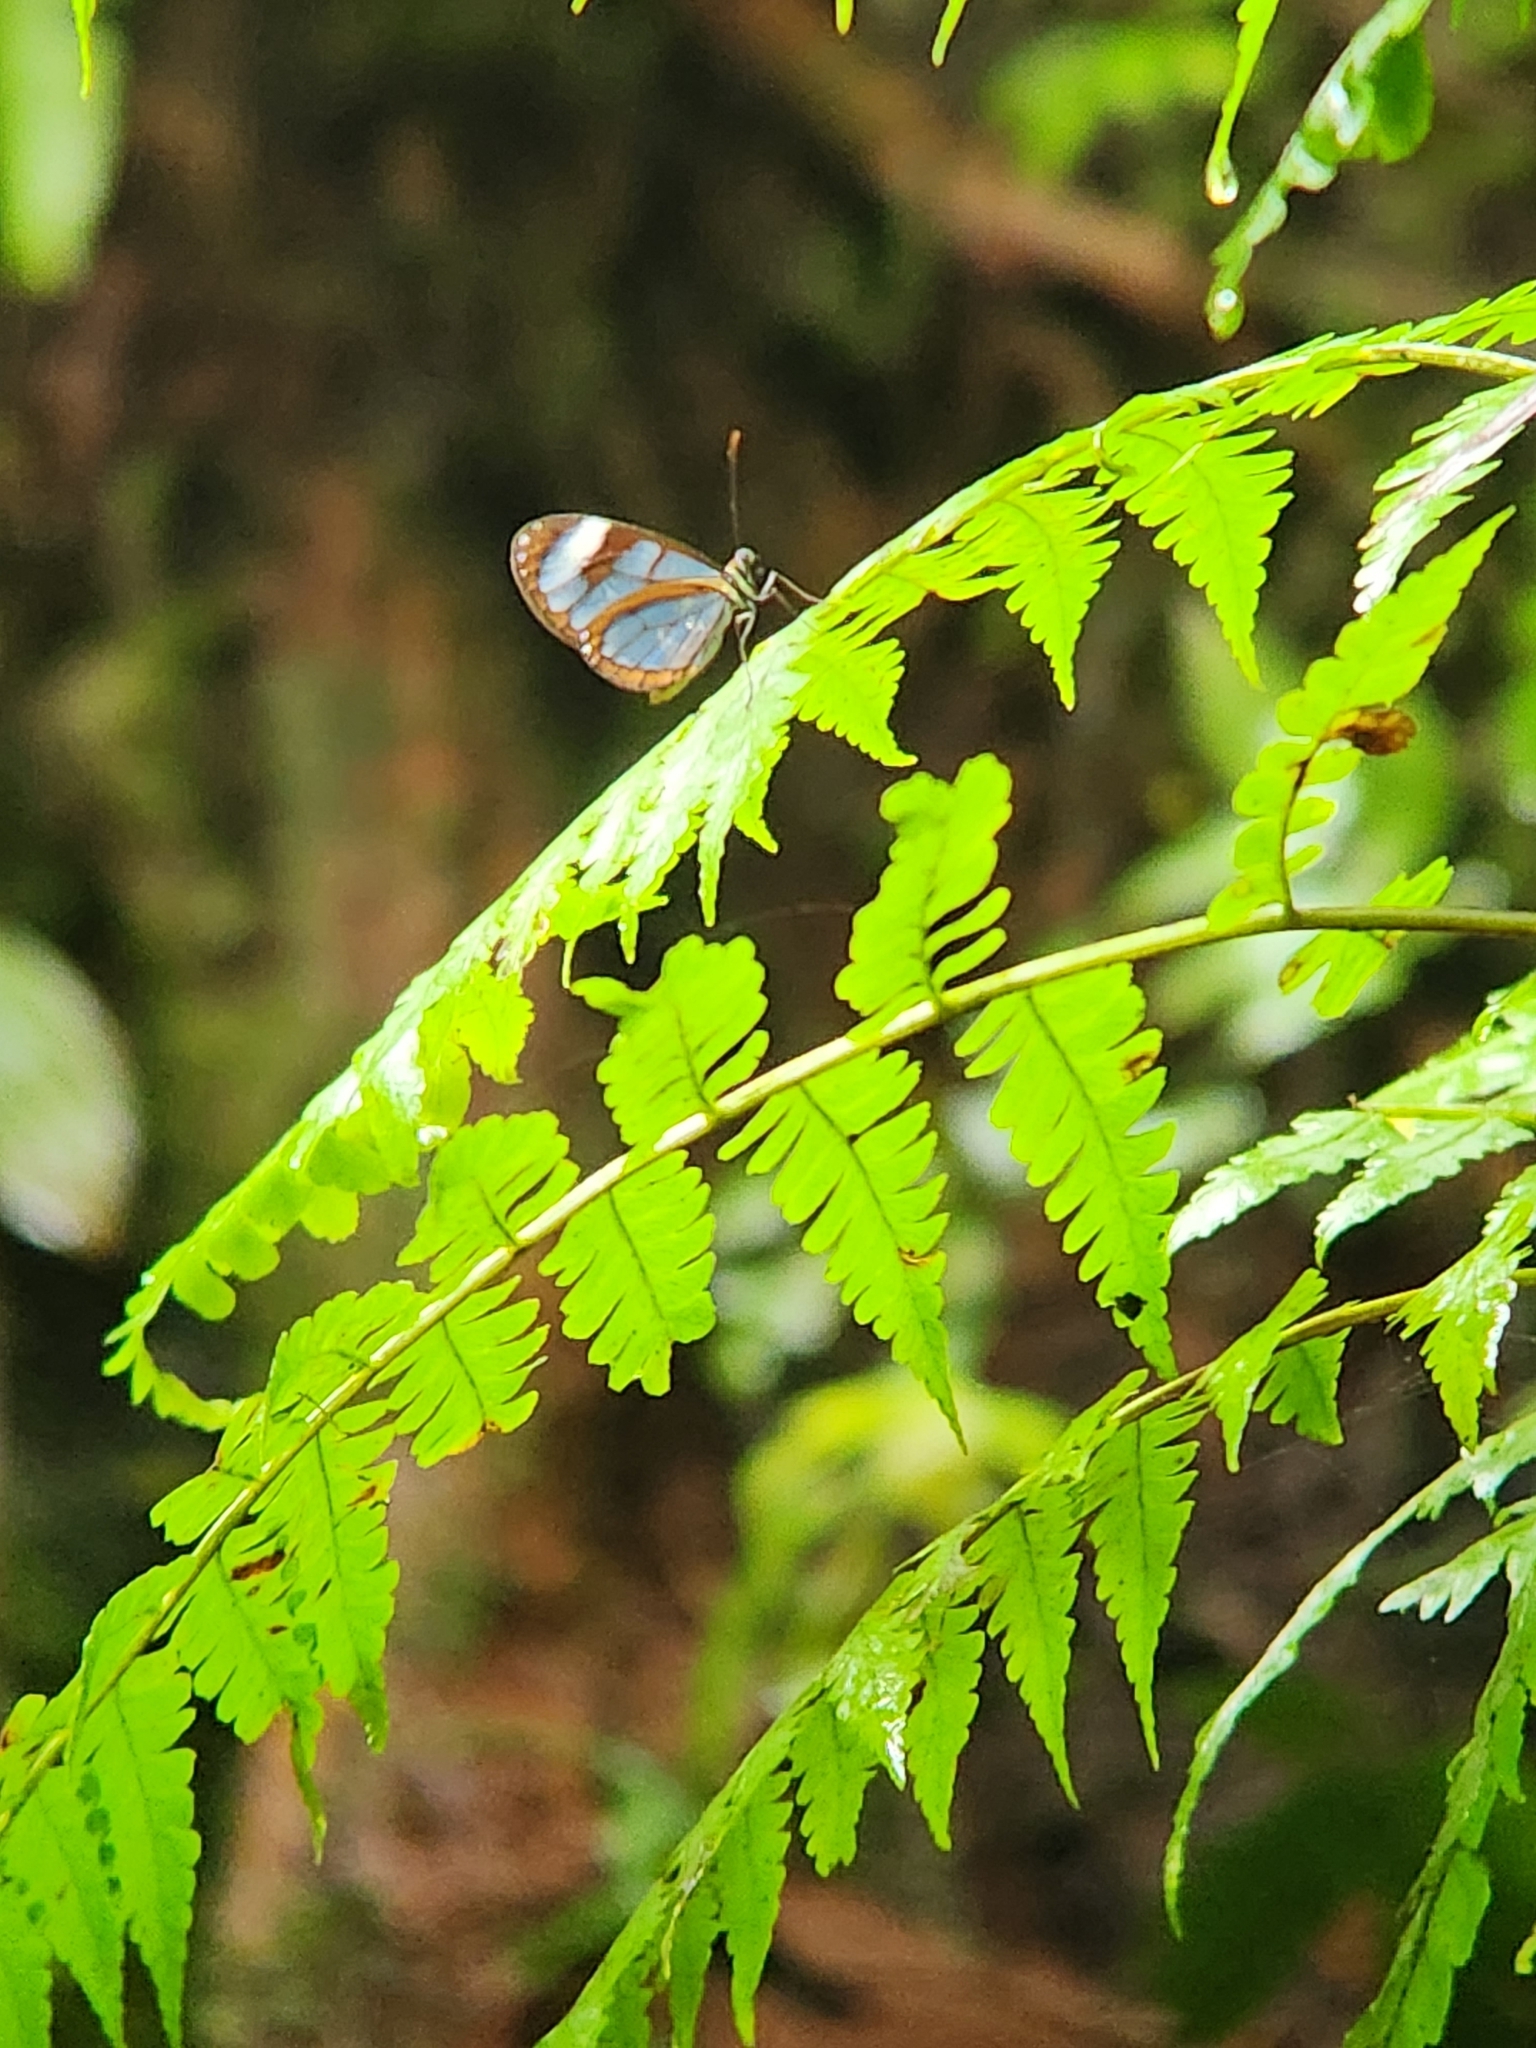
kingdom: Animalia
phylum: Arthropoda
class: Insecta
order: Lepidoptera
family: Nymphalidae
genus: Ithomia
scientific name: Ithomia diasia
